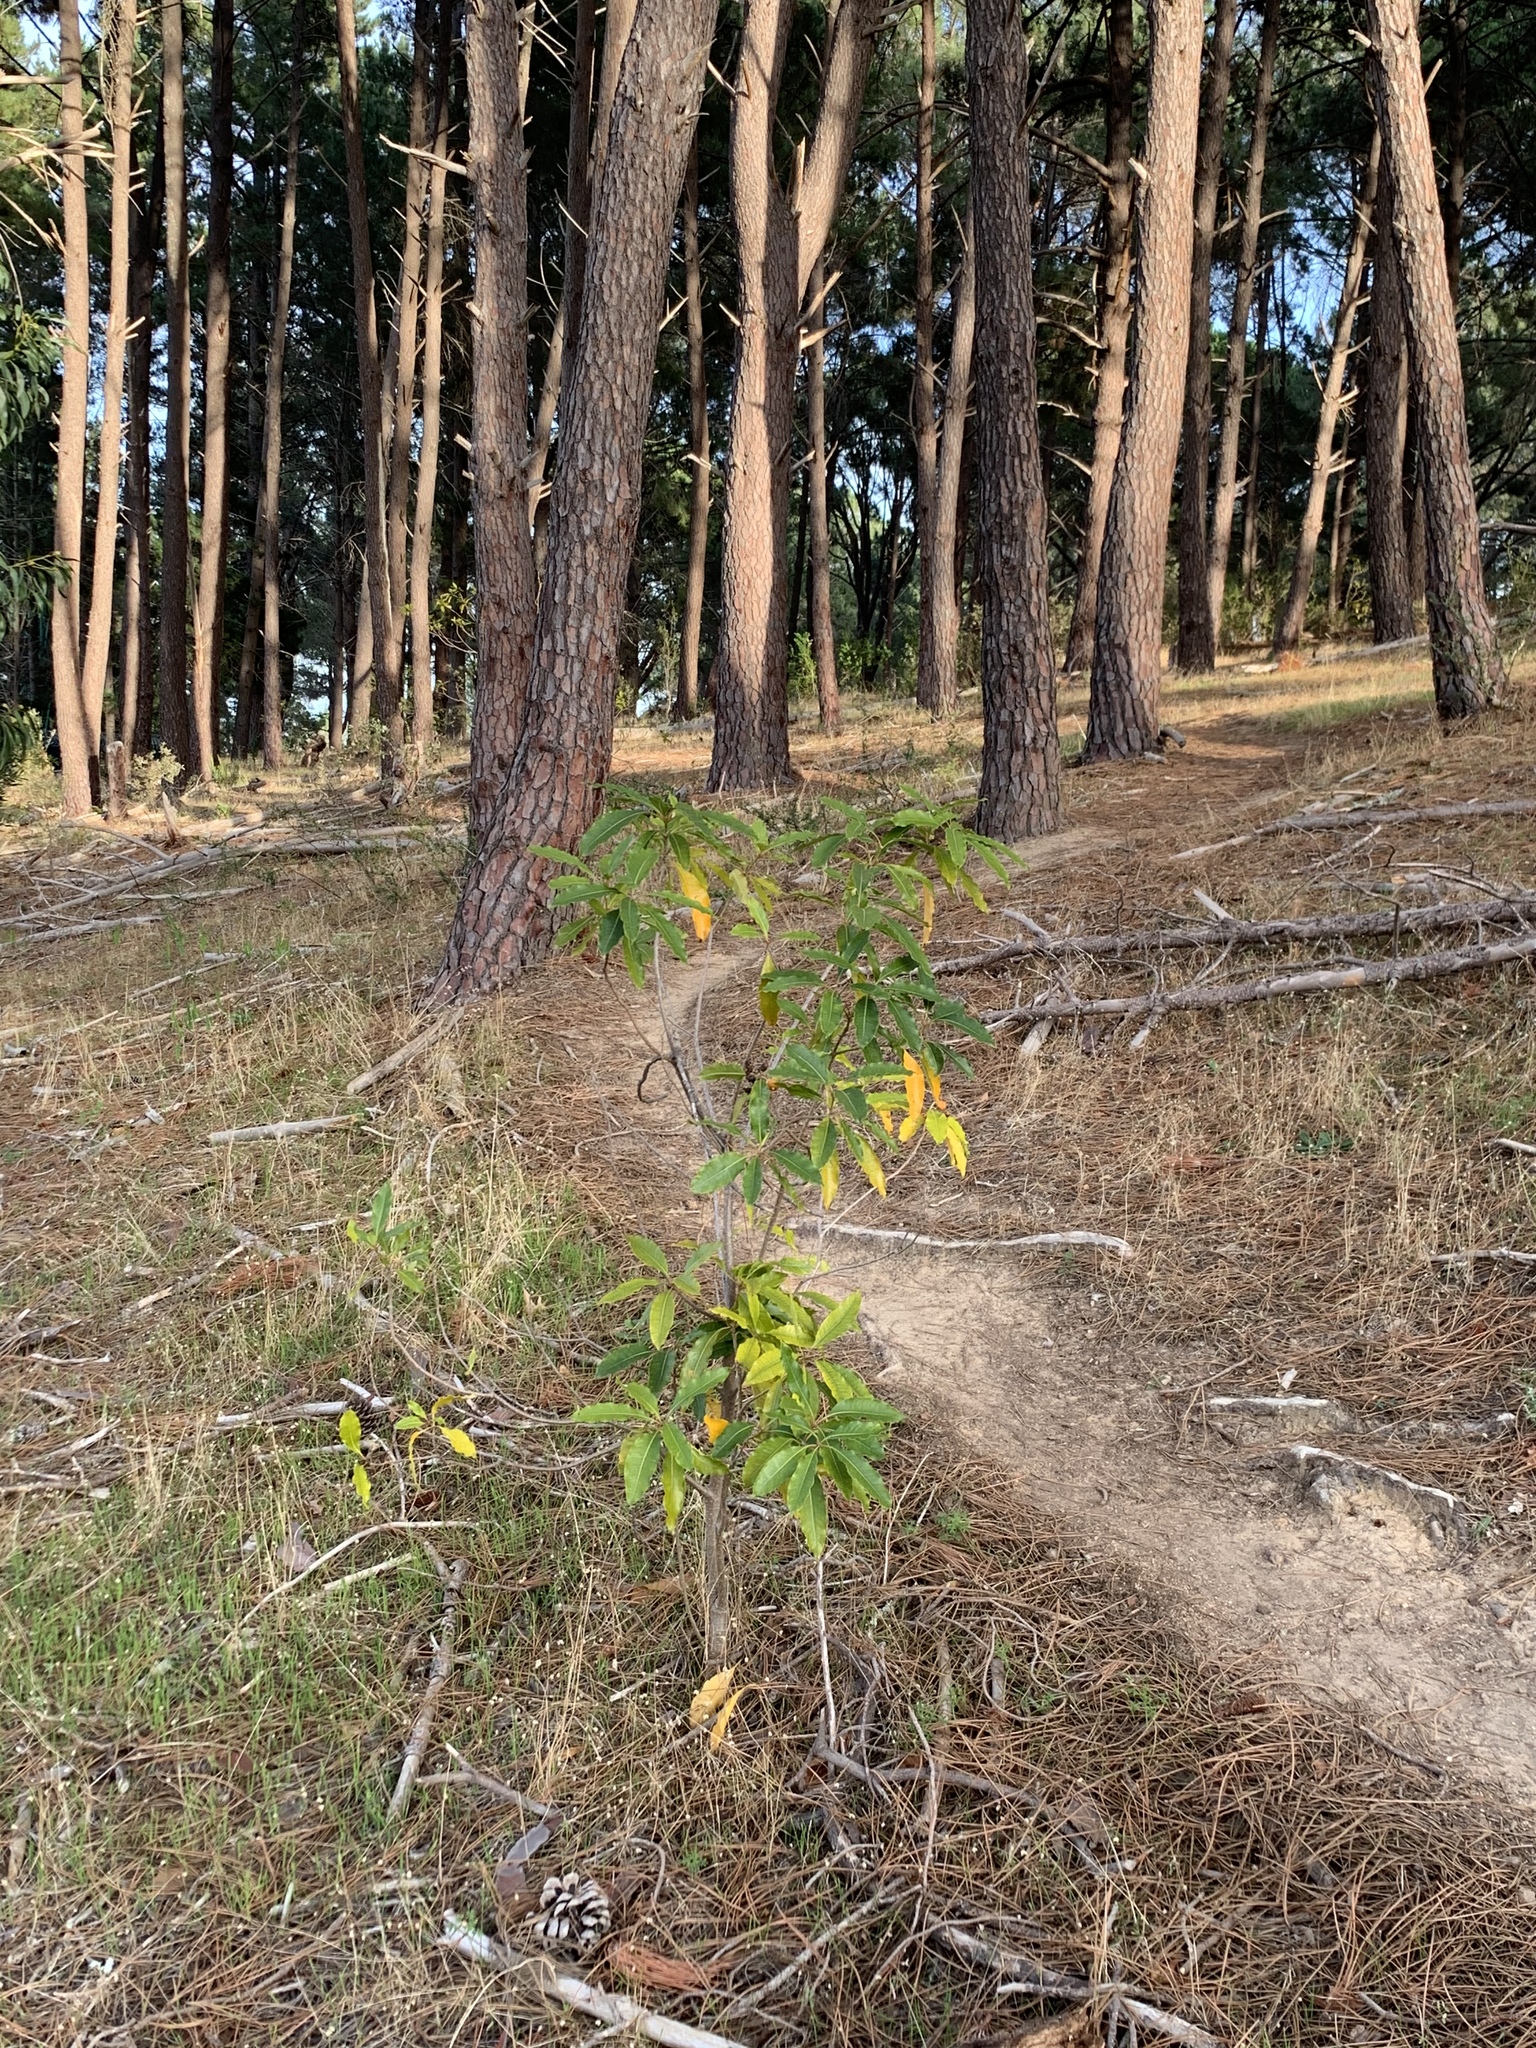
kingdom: Plantae
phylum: Tracheophyta
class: Magnoliopsida
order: Apiales
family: Pittosporaceae
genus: Pittosporum
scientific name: Pittosporum undulatum
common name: Australian cheesewood
